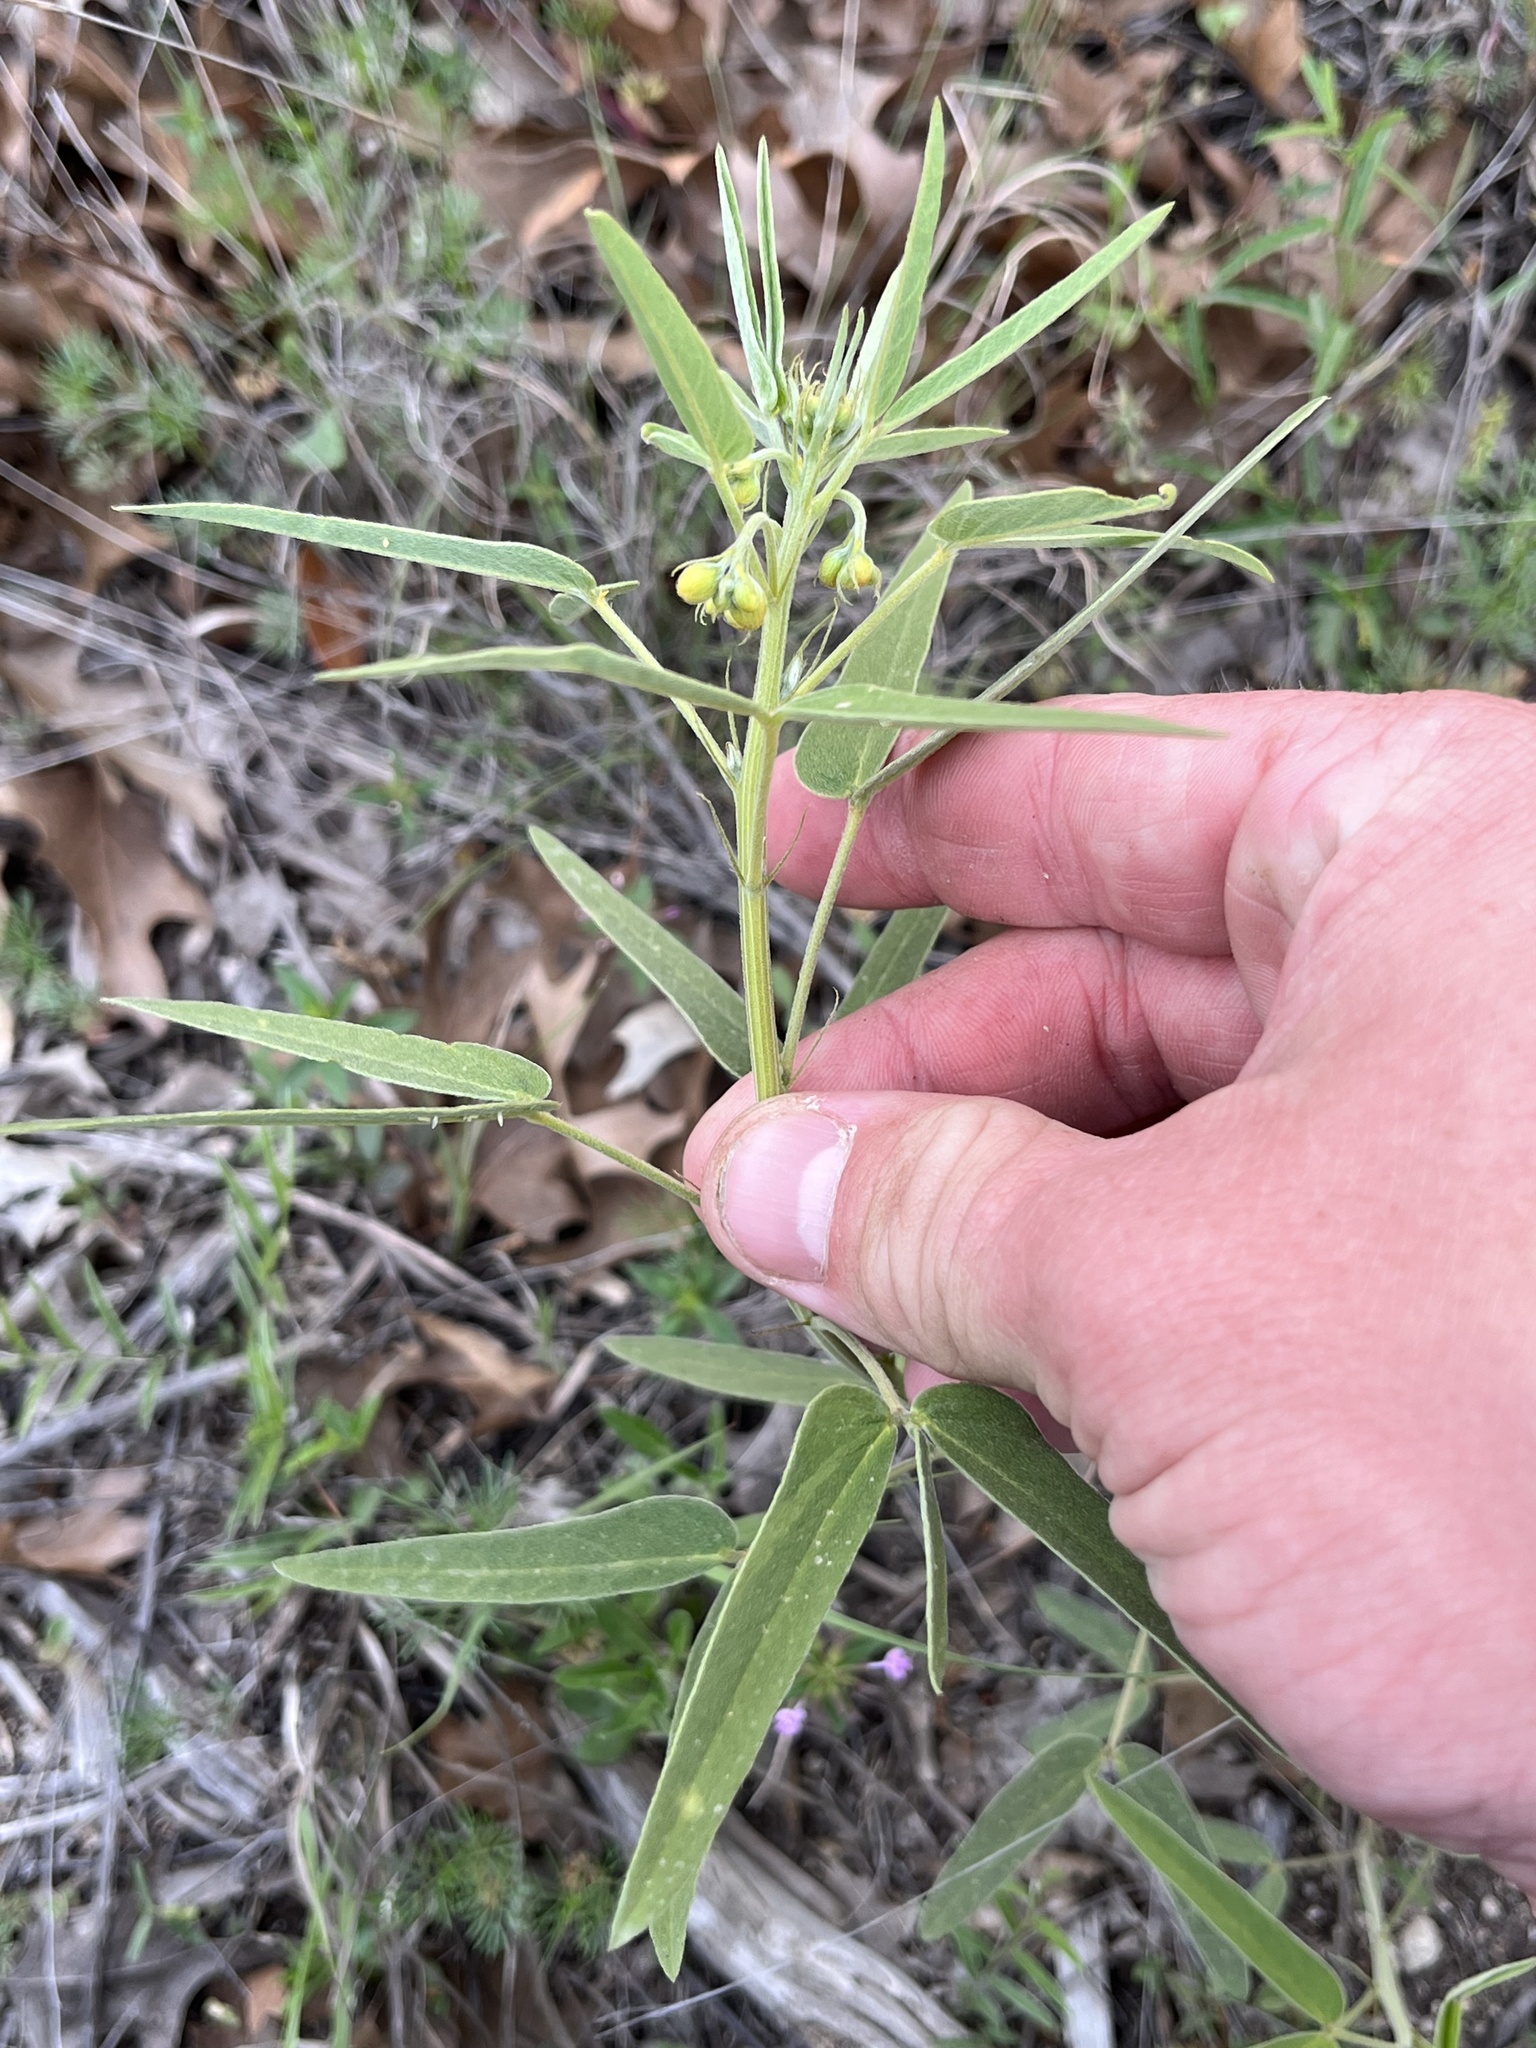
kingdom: Plantae
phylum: Tracheophyta
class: Magnoliopsida
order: Fabales
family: Fabaceae
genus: Senna
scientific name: Senna roemeriana
